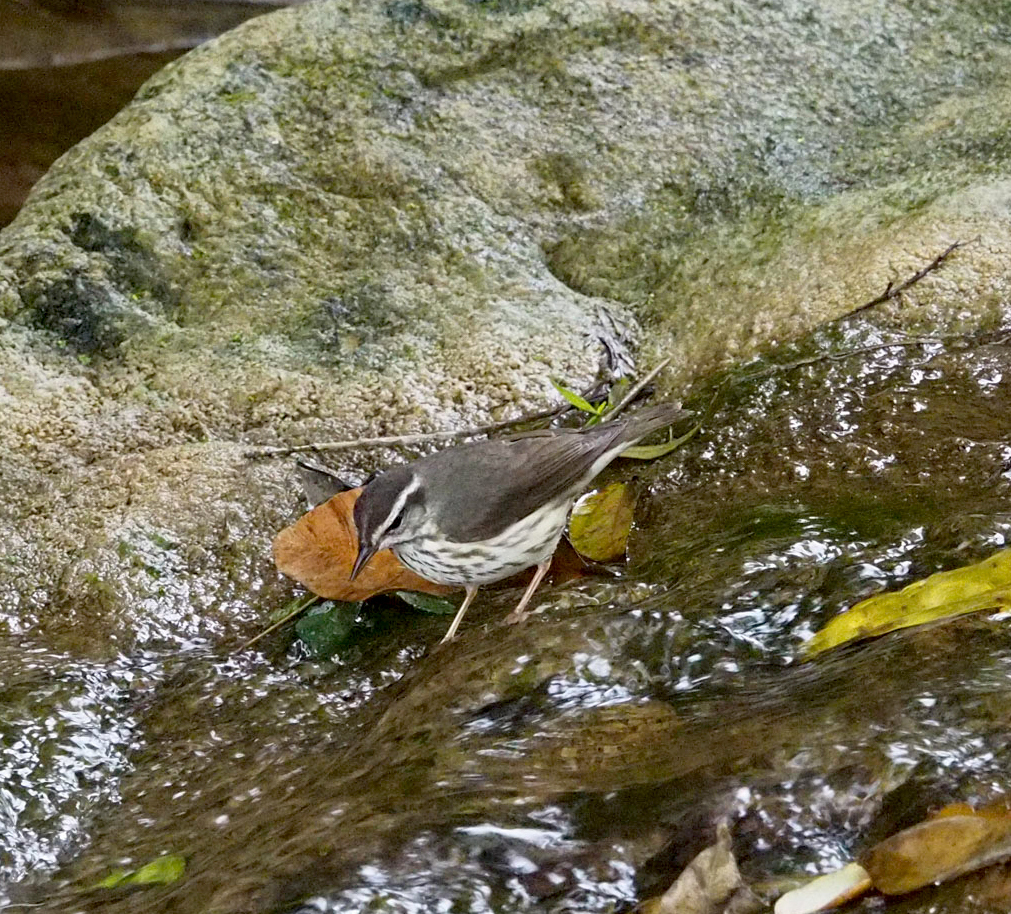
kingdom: Animalia
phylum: Chordata
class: Aves
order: Passeriformes
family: Parulidae
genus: Parkesia
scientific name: Parkesia motacilla
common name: Louisiana waterthrush
